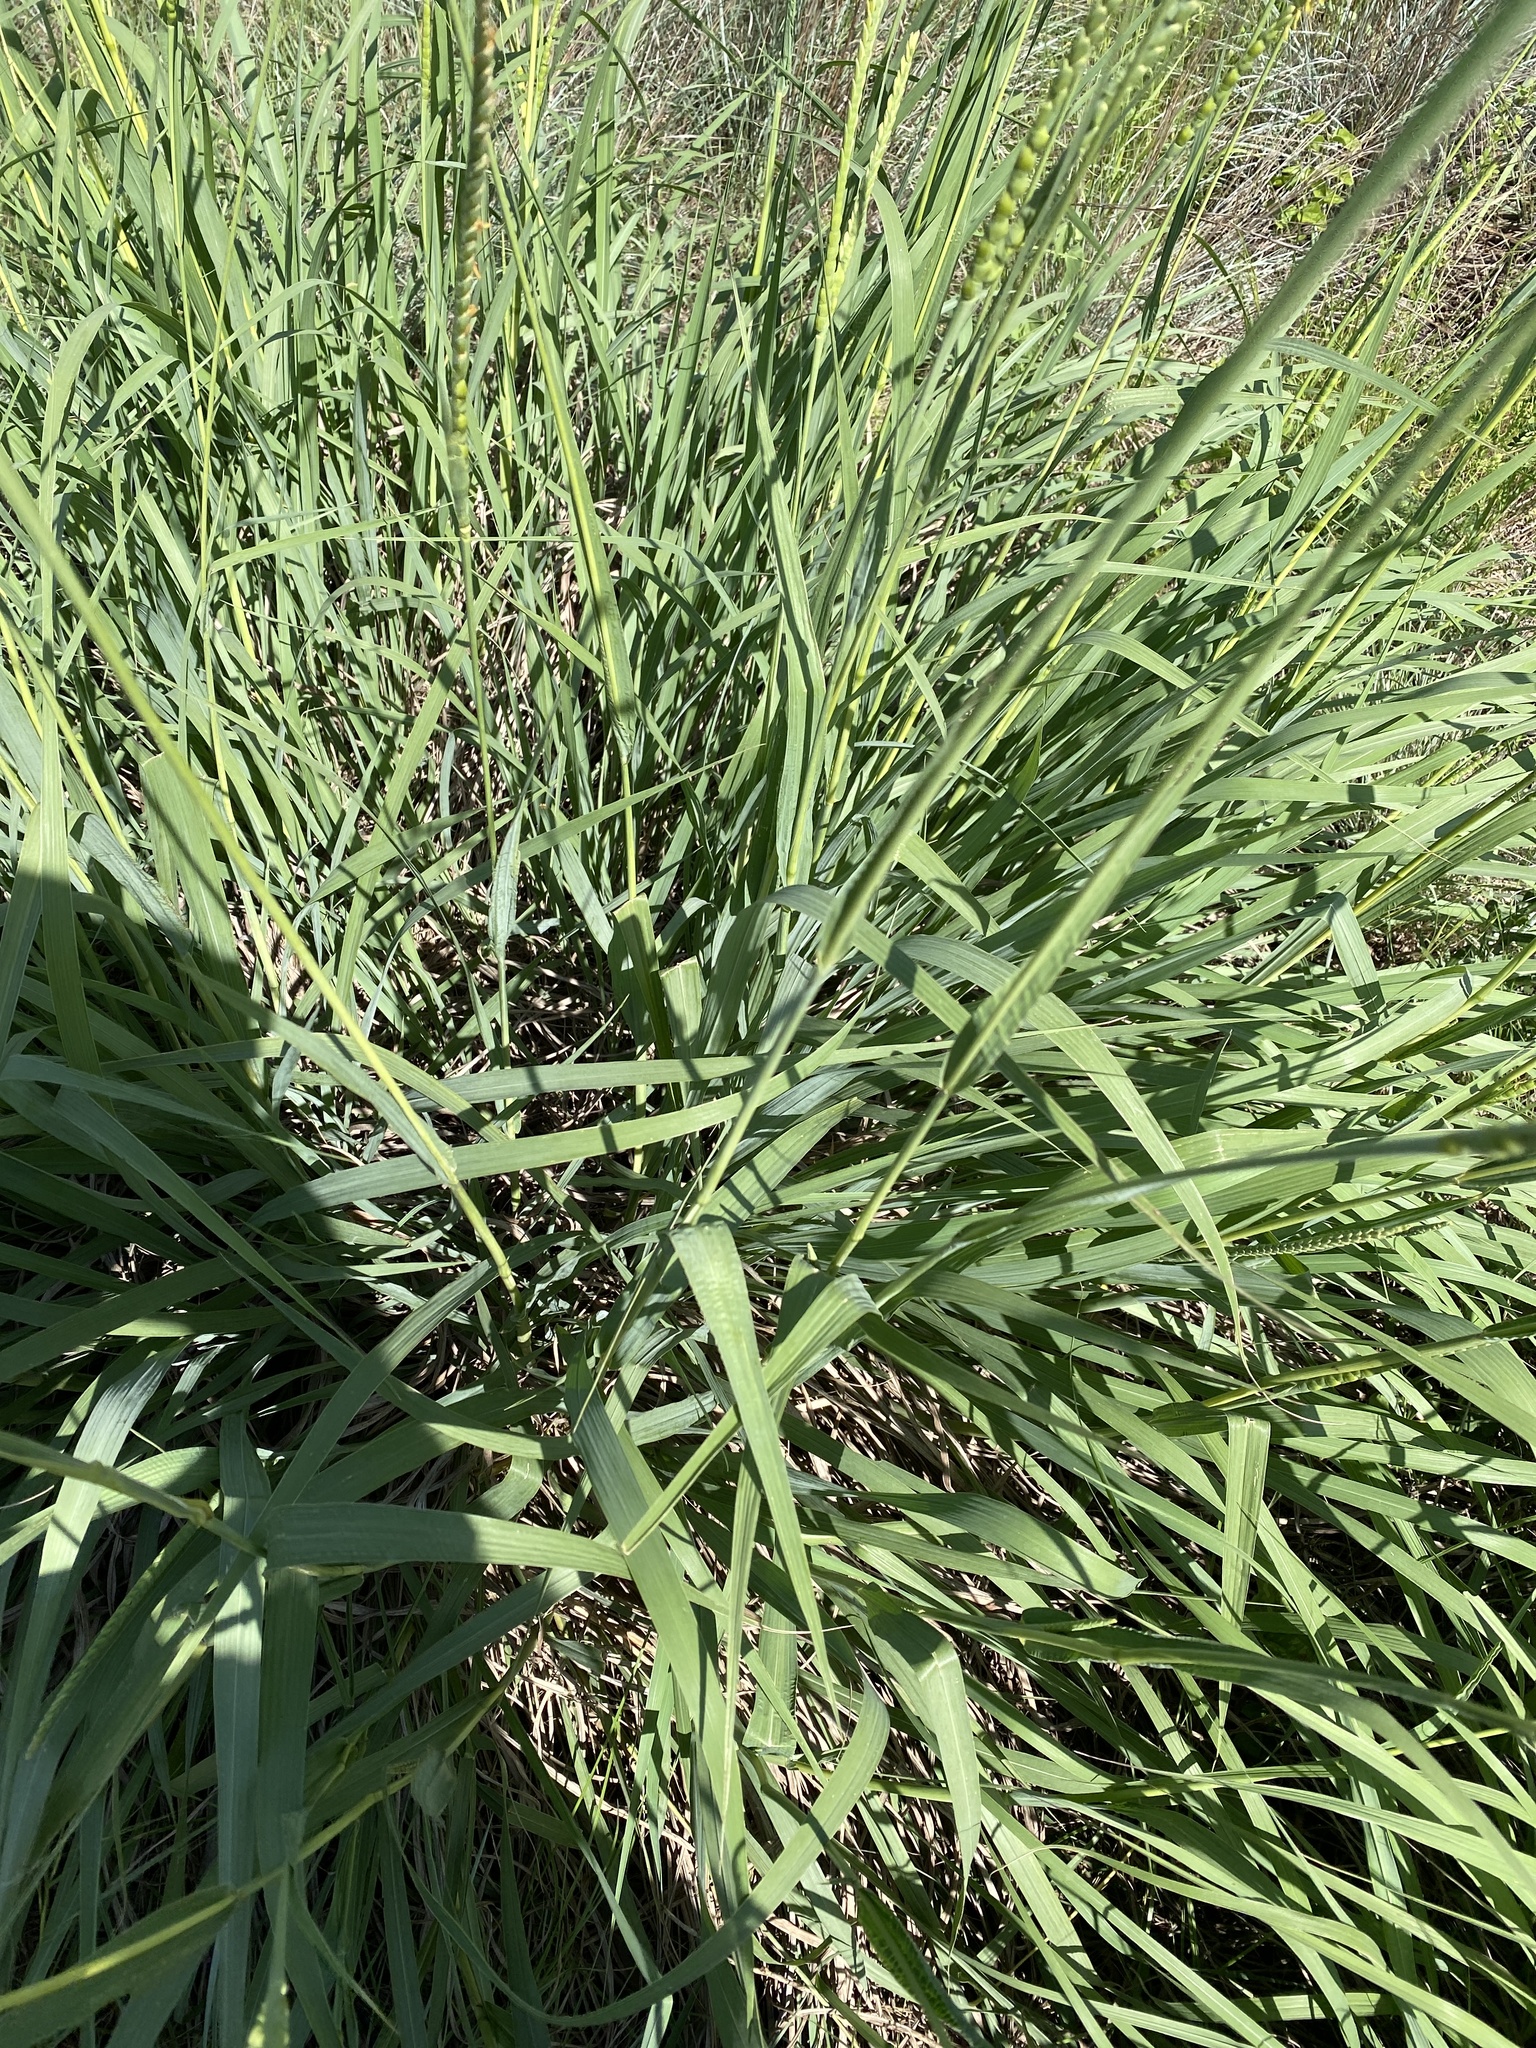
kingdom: Plantae
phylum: Tracheophyta
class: Liliopsida
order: Poales
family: Poaceae
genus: Tripsacum
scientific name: Tripsacum dactyloides
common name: Buffalo-grass
